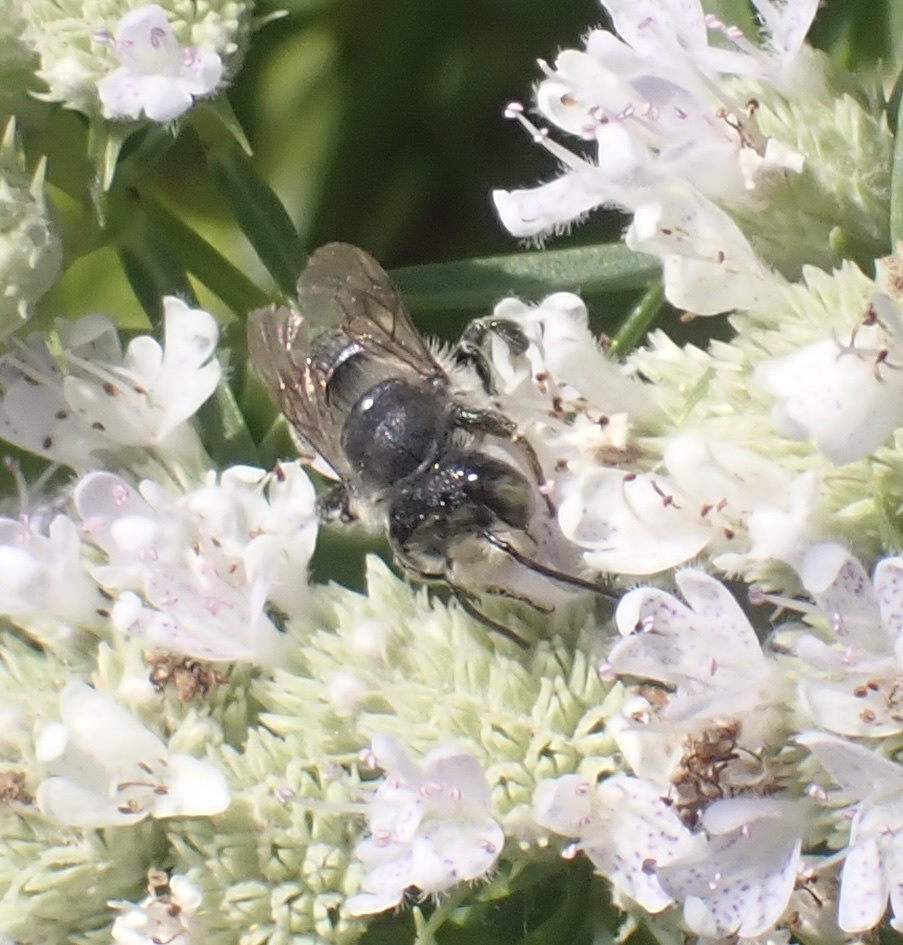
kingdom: Animalia
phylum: Arthropoda
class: Insecta
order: Hymenoptera
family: Megachilidae
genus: Megachile
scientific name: Megachile mendica
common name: Flat-tailed leafcutter
